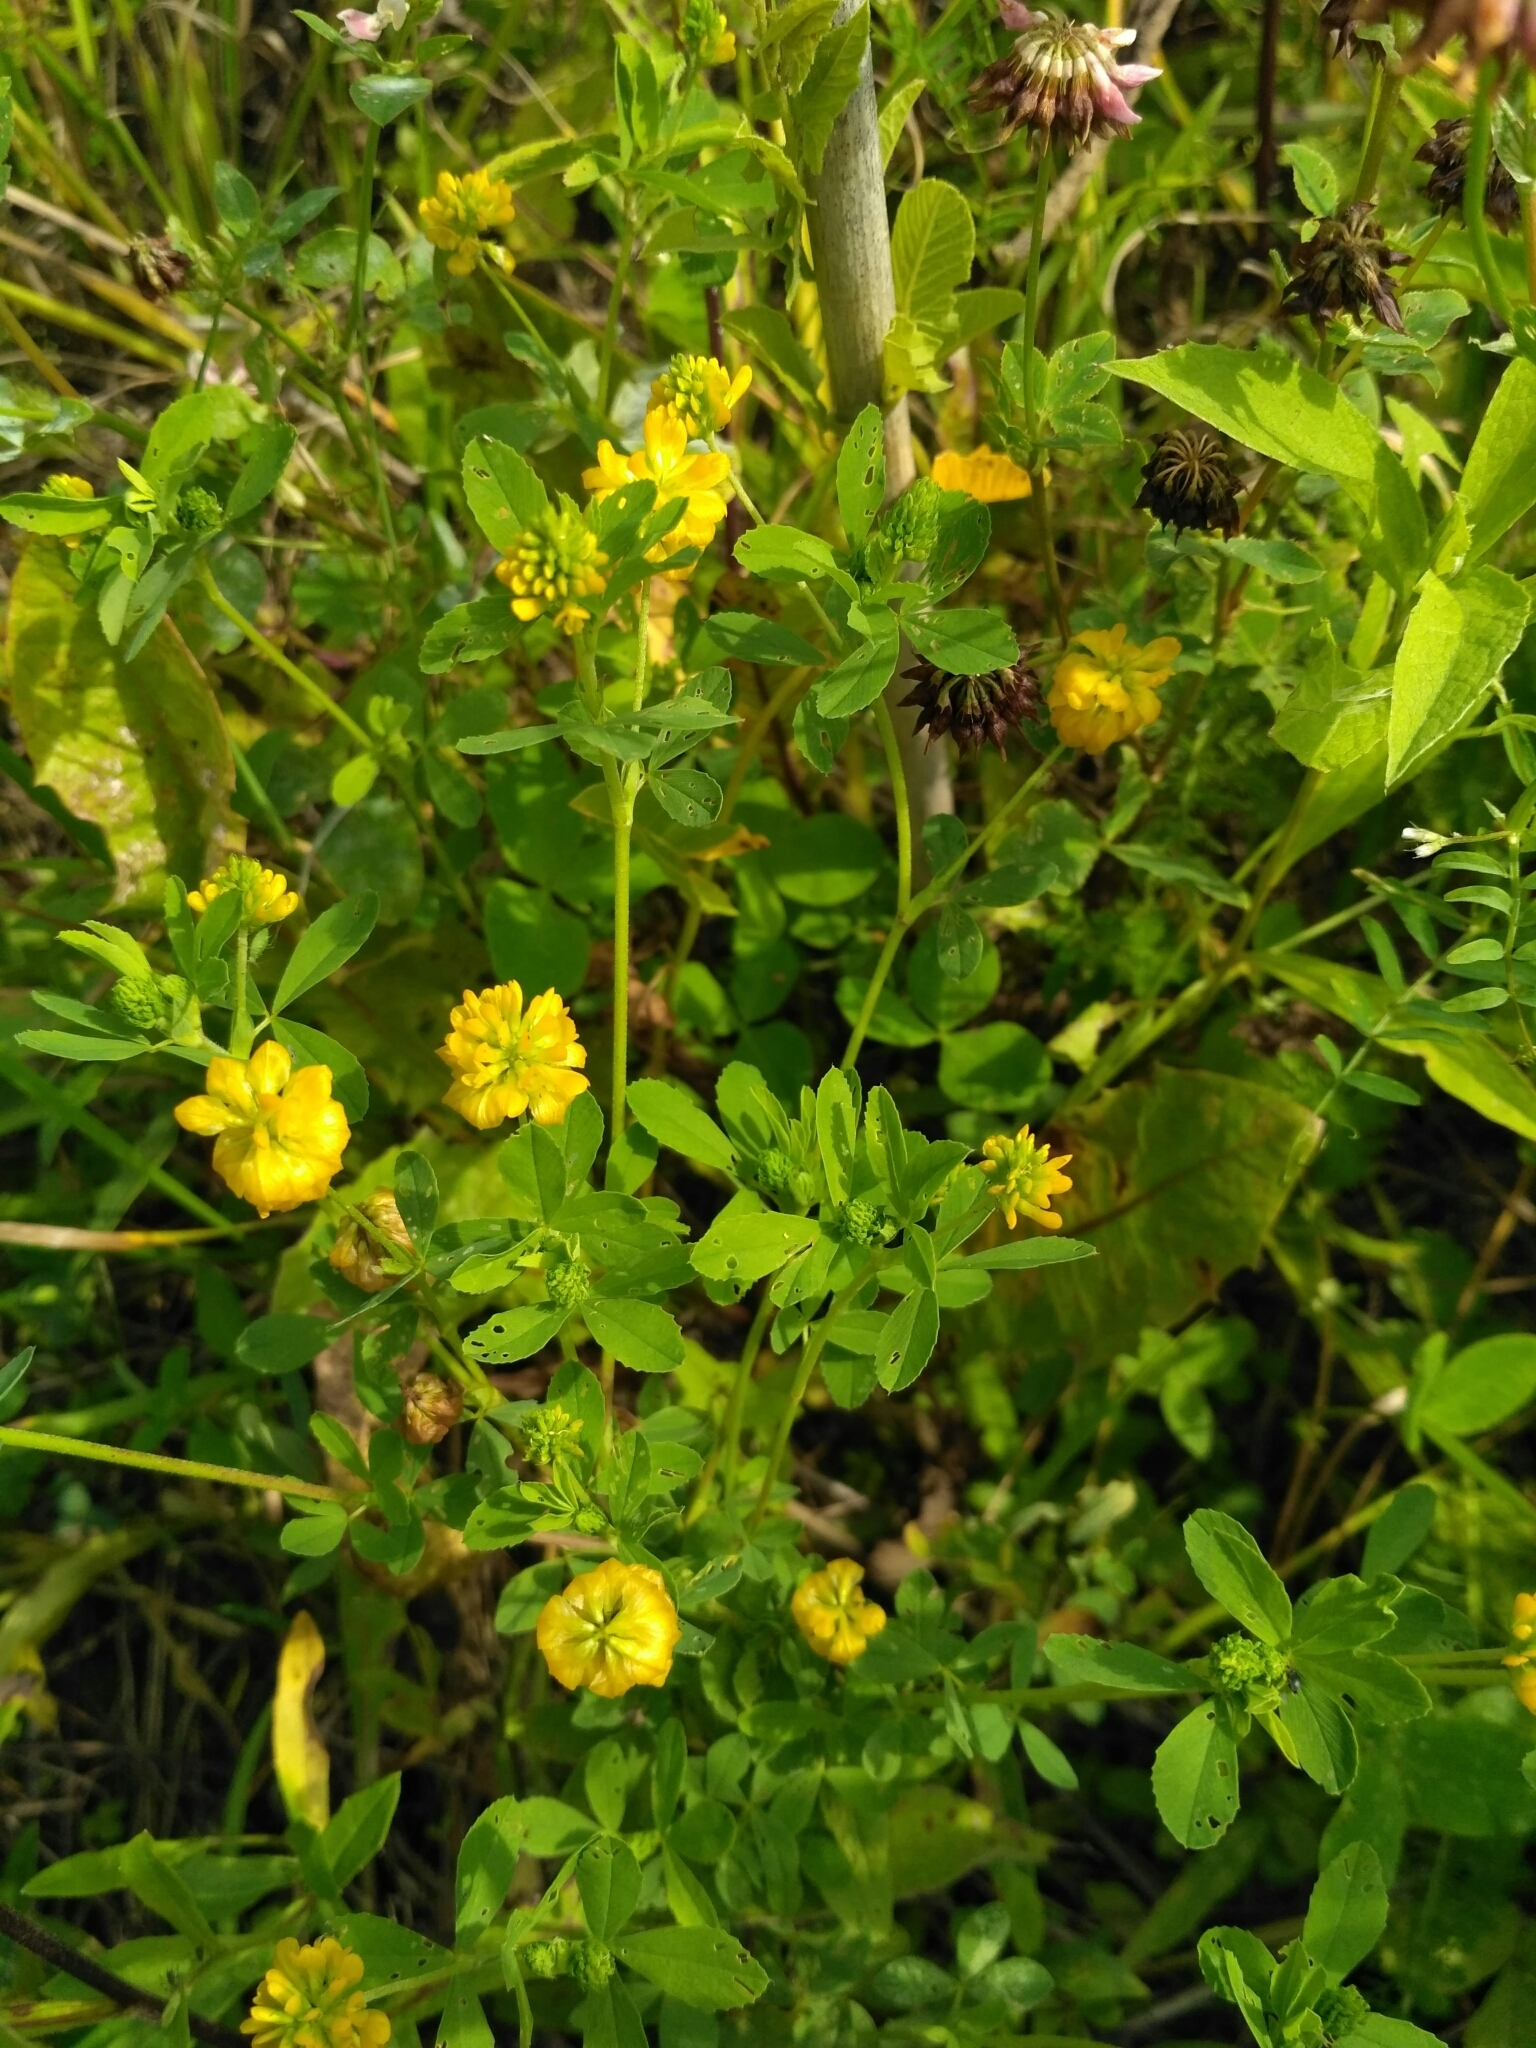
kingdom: Plantae
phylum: Tracheophyta
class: Magnoliopsida
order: Fabales
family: Fabaceae
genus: Trifolium
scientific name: Trifolium aureum
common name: Golden clover
